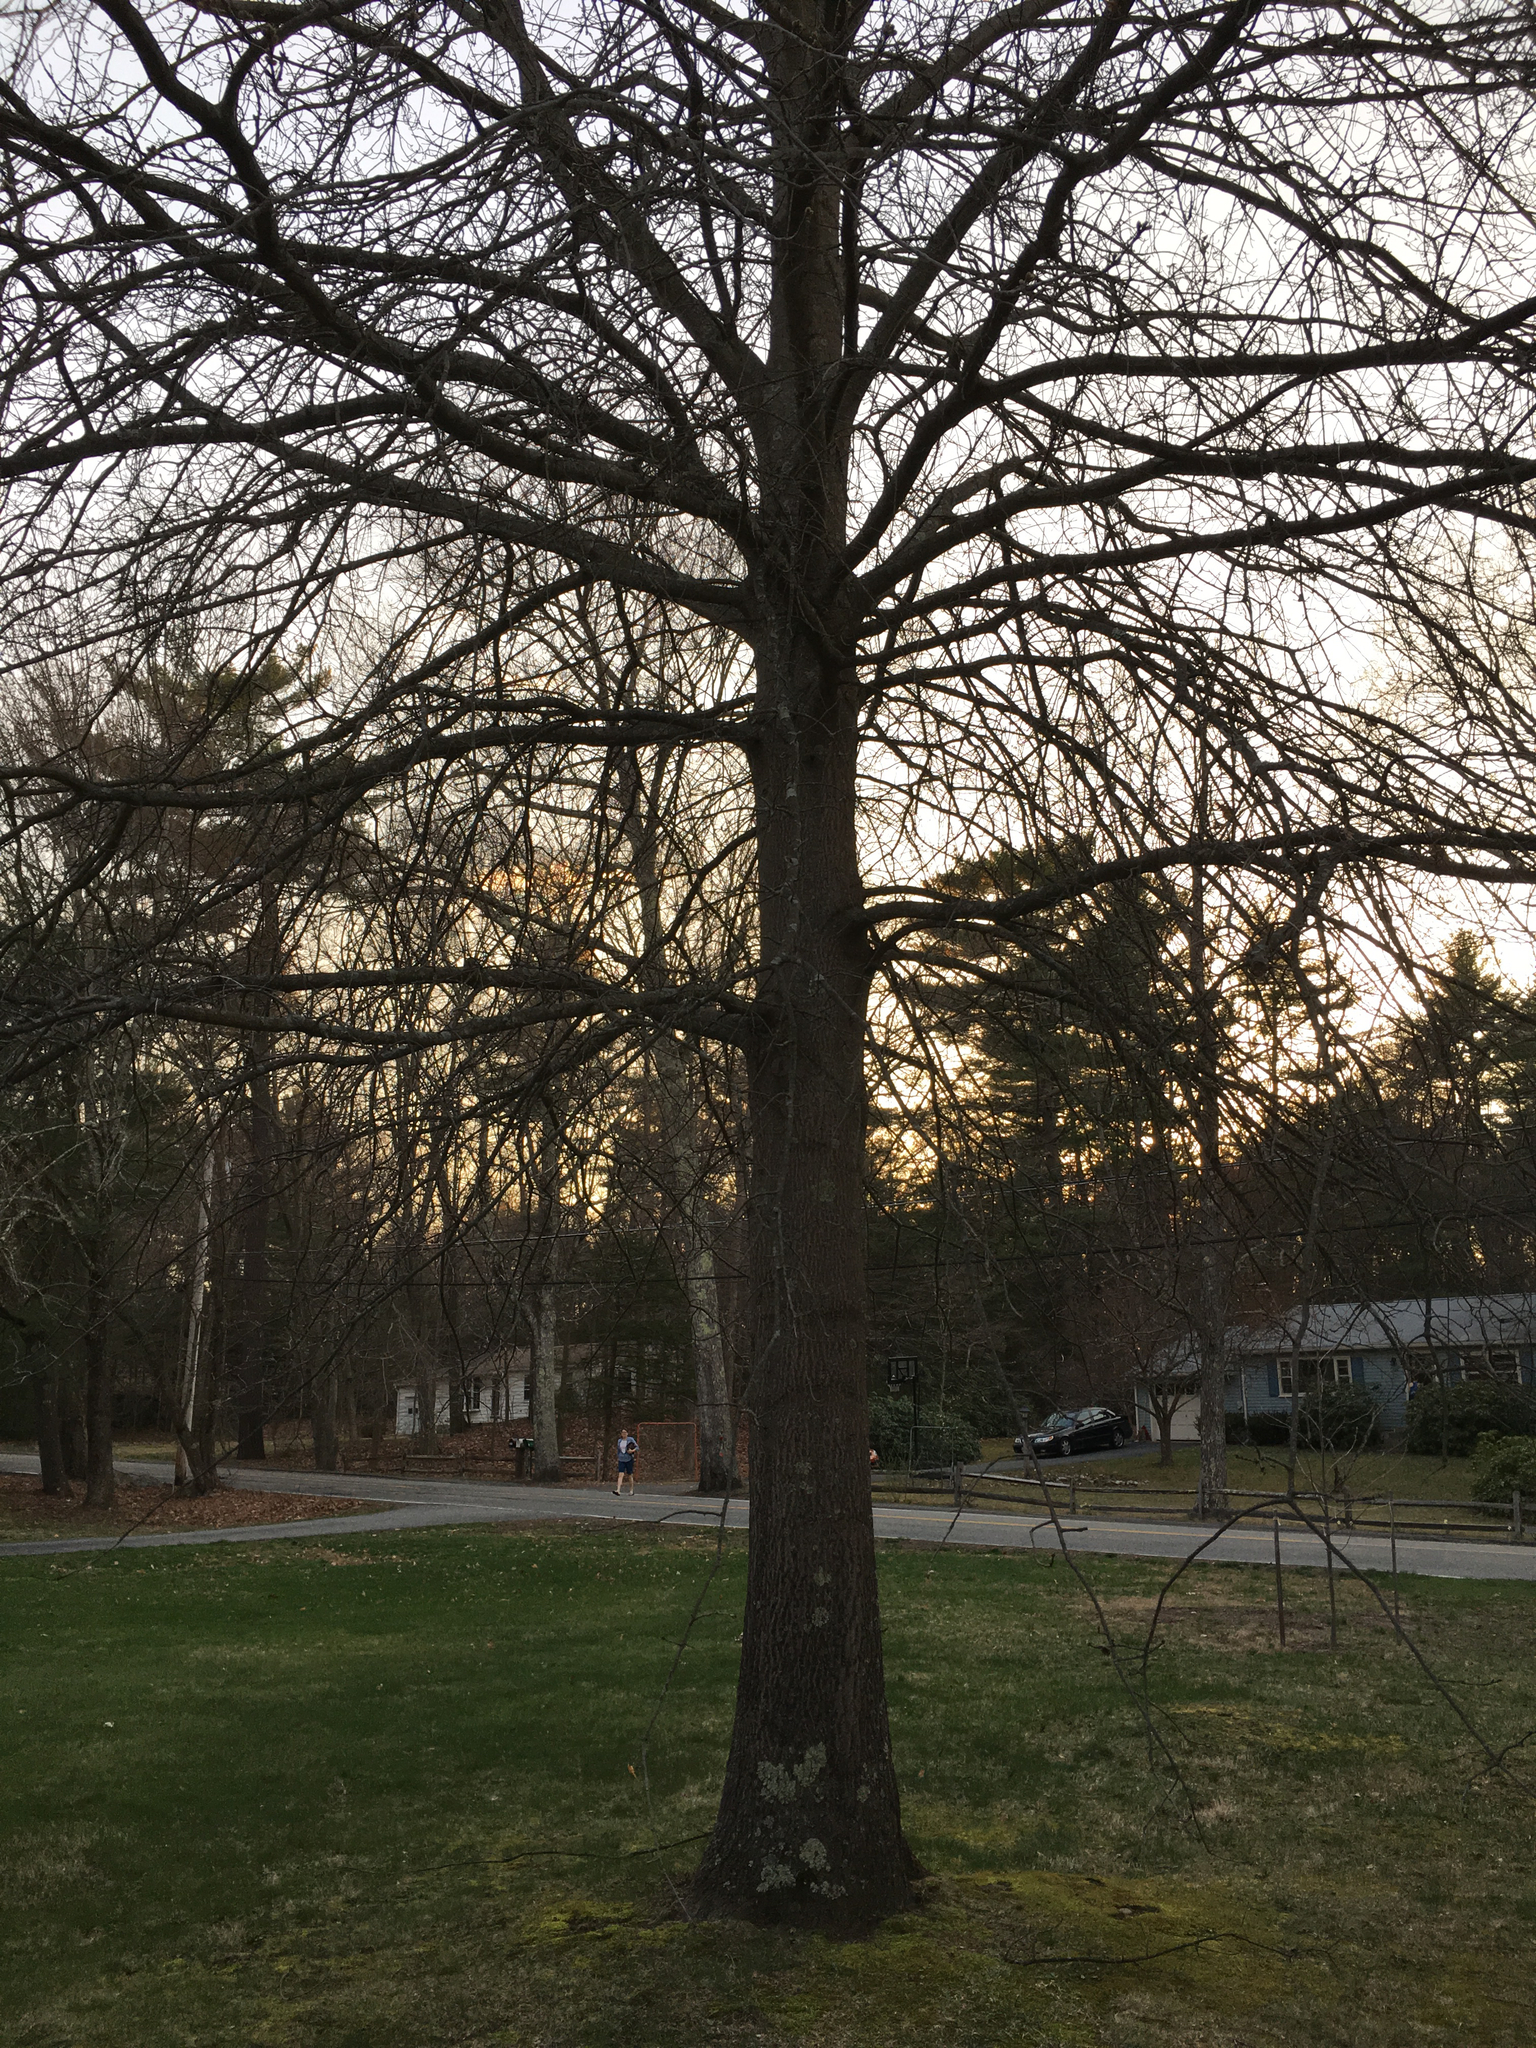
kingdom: Plantae
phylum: Tracheophyta
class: Magnoliopsida
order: Fagales
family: Fagaceae
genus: Quercus
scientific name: Quercus palustris
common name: Pin oak
